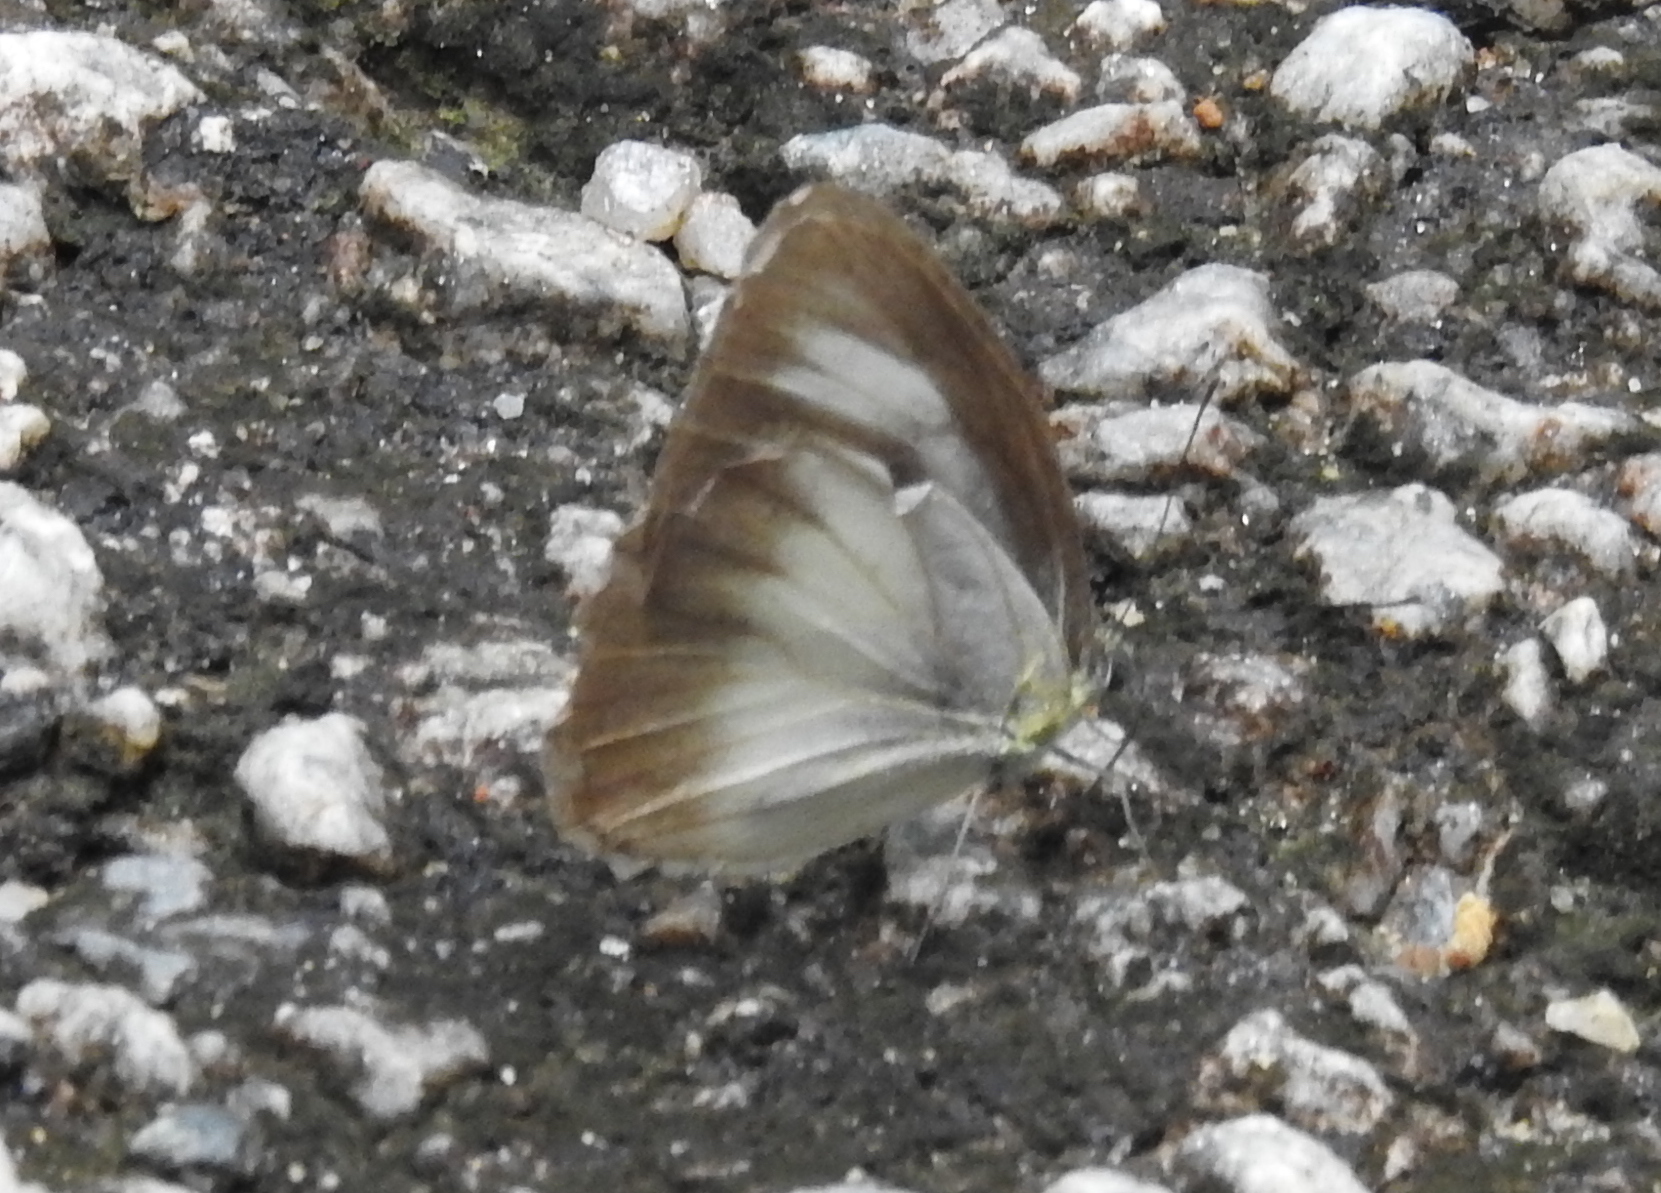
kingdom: Animalia
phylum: Arthropoda
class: Insecta
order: Lepidoptera
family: Pieridae
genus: Appias
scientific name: Appias lyncida
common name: Chocolate albatross
